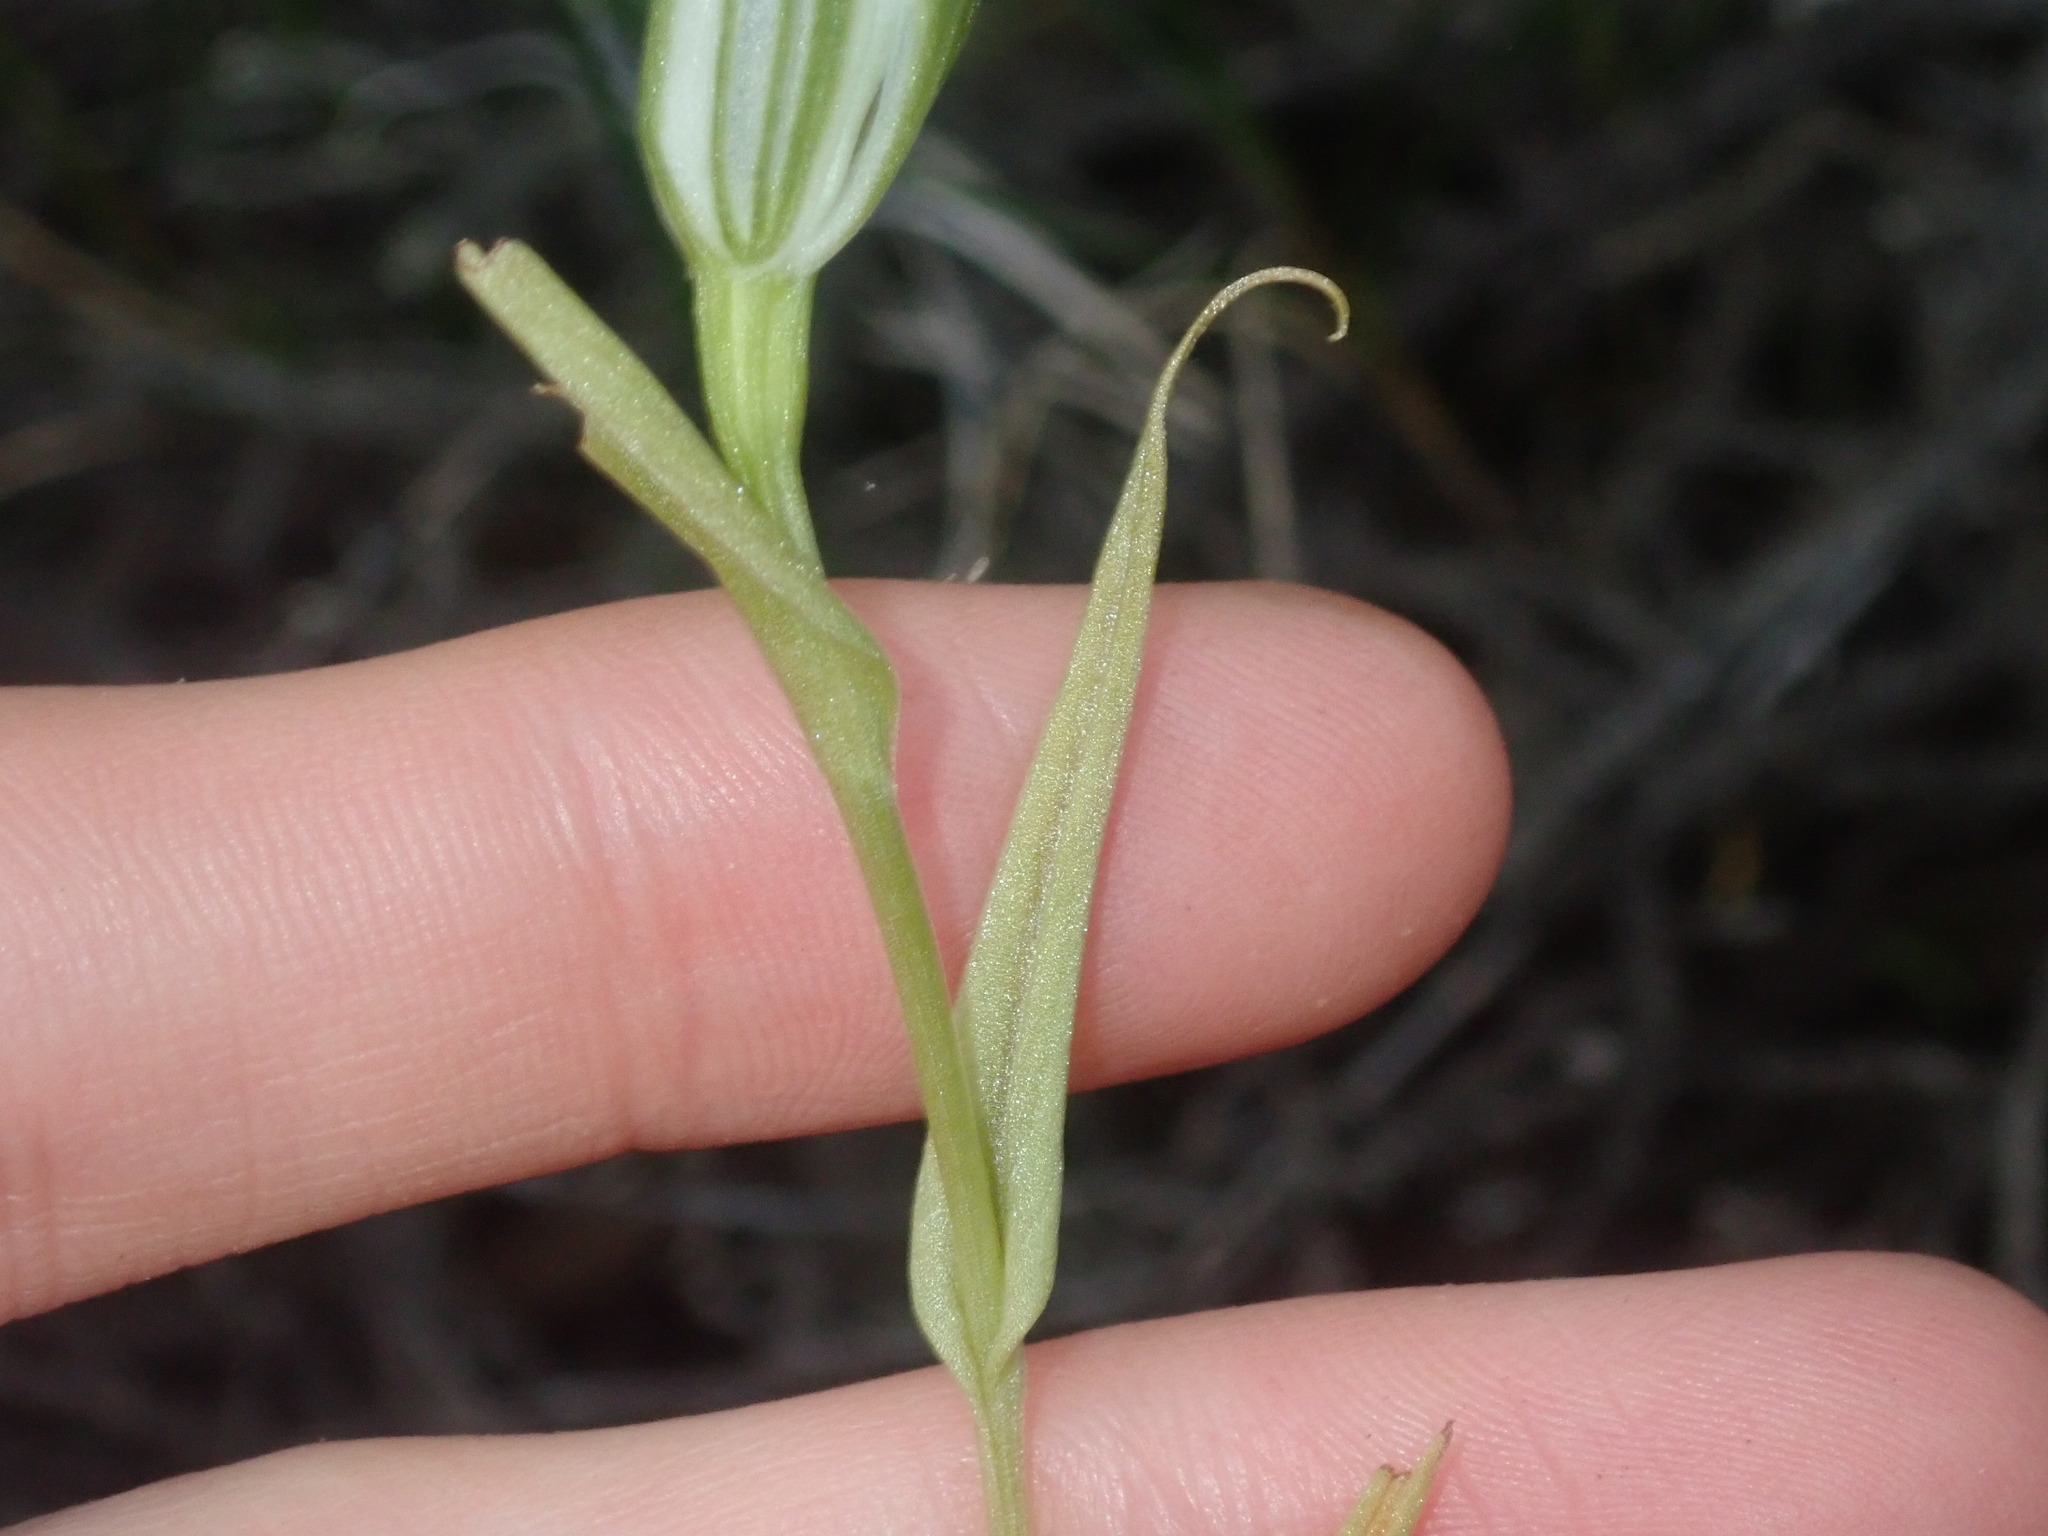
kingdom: Plantae
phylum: Tracheophyta
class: Liliopsida
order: Asparagales
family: Orchidaceae
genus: Pterostylis
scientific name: Pterostylis recurva
